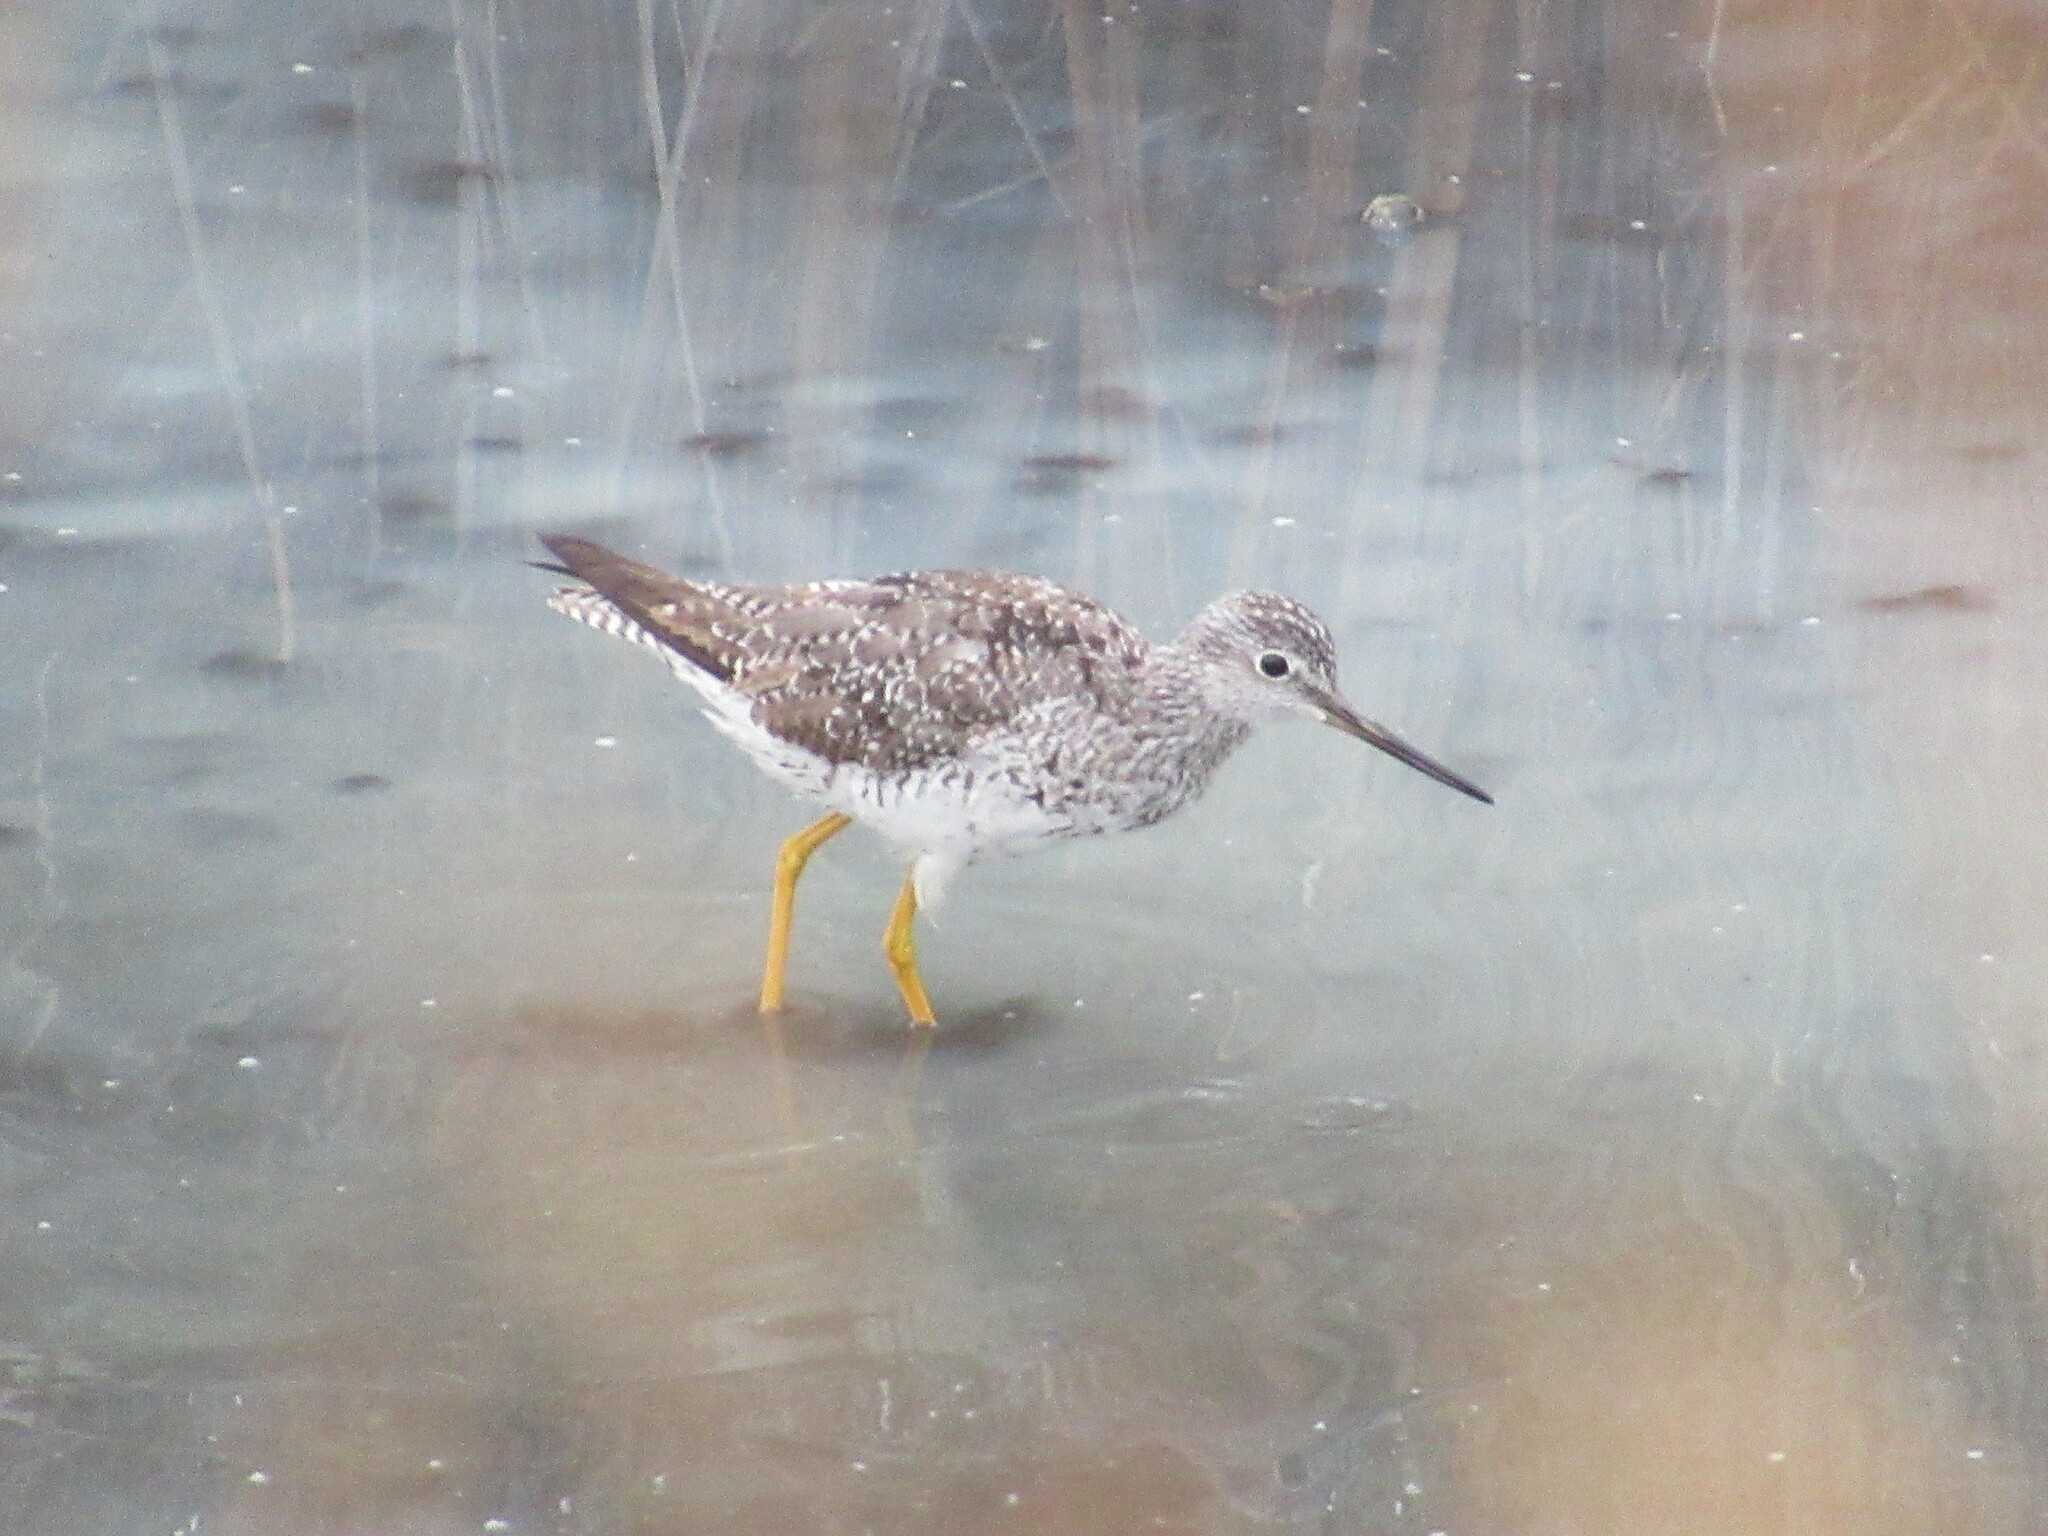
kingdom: Animalia
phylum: Chordata
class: Aves
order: Charadriiformes
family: Scolopacidae
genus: Tringa
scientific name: Tringa melanoleuca
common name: Greater yellowlegs
